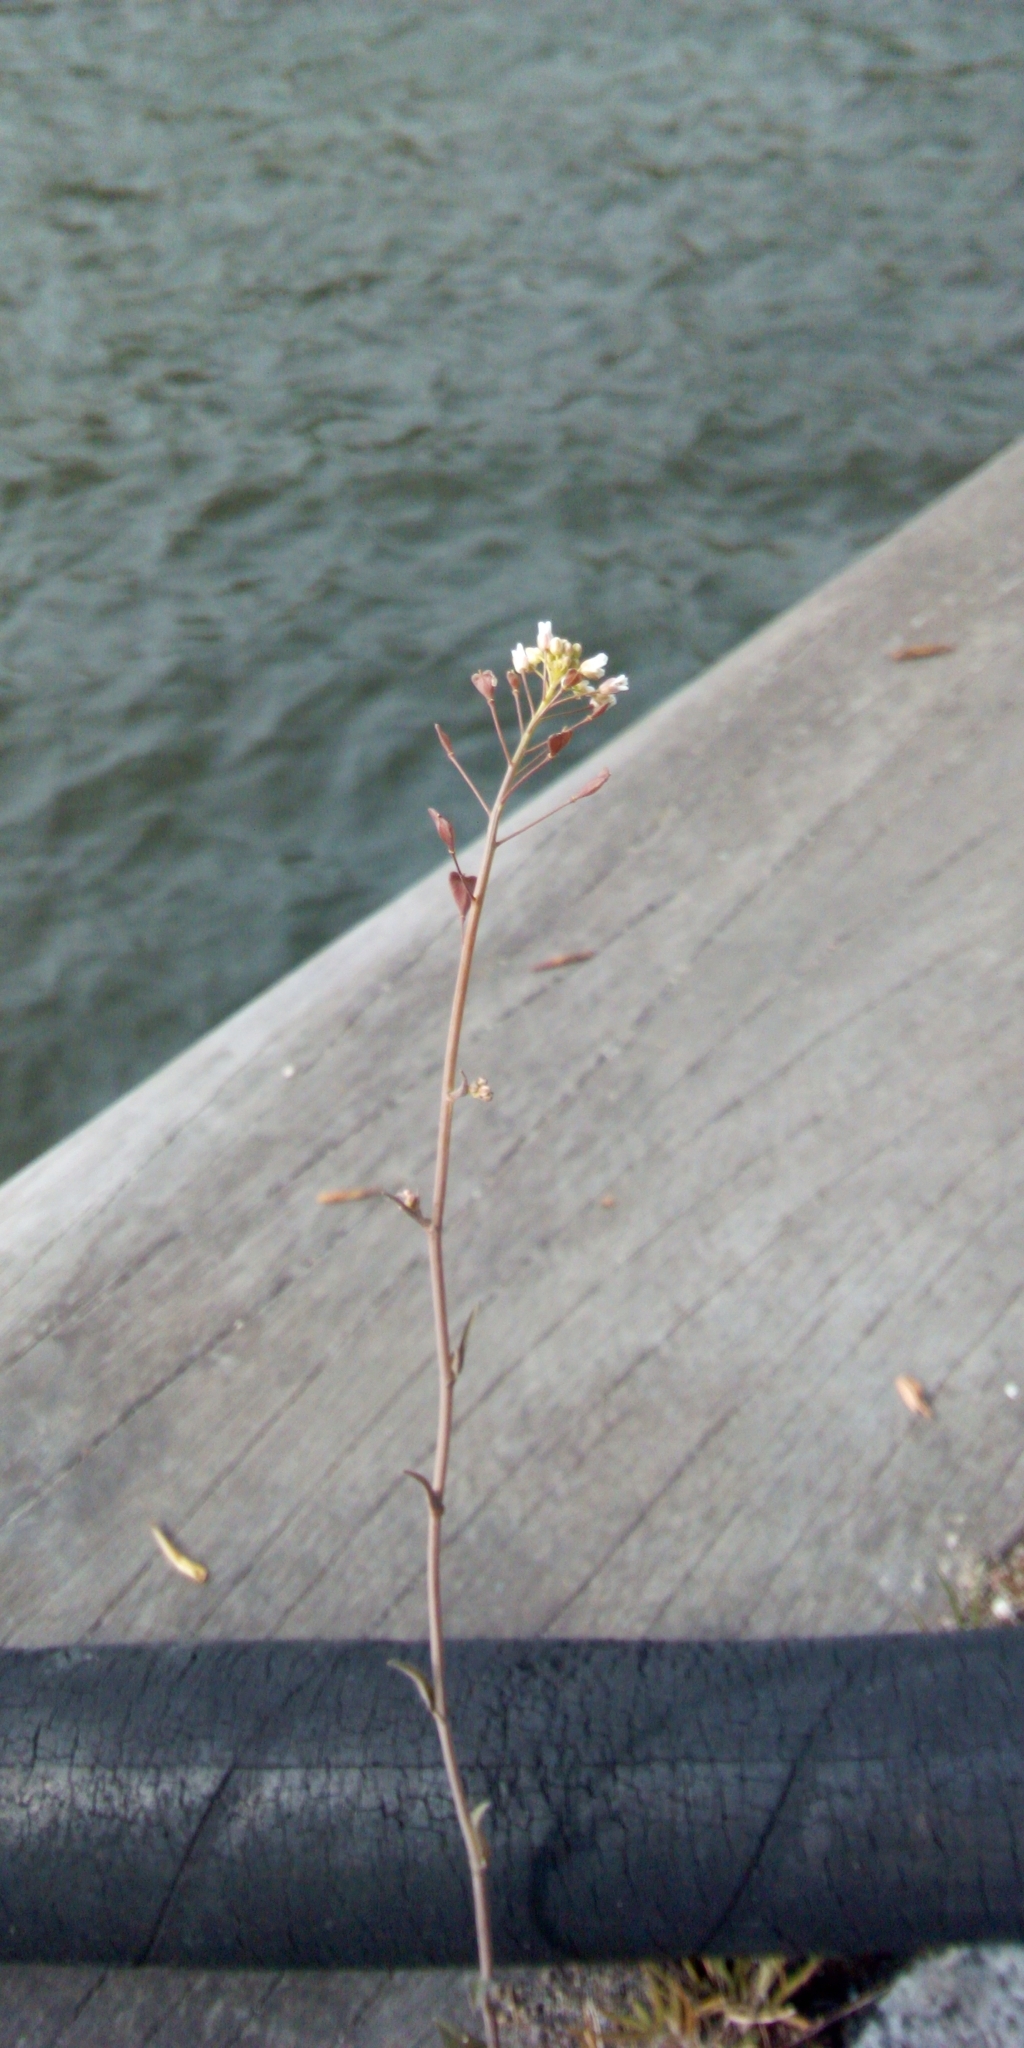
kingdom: Plantae
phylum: Tracheophyta
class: Magnoliopsida
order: Brassicales
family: Brassicaceae
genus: Capsella
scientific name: Capsella bursa-pastoris
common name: Shepherd's purse
